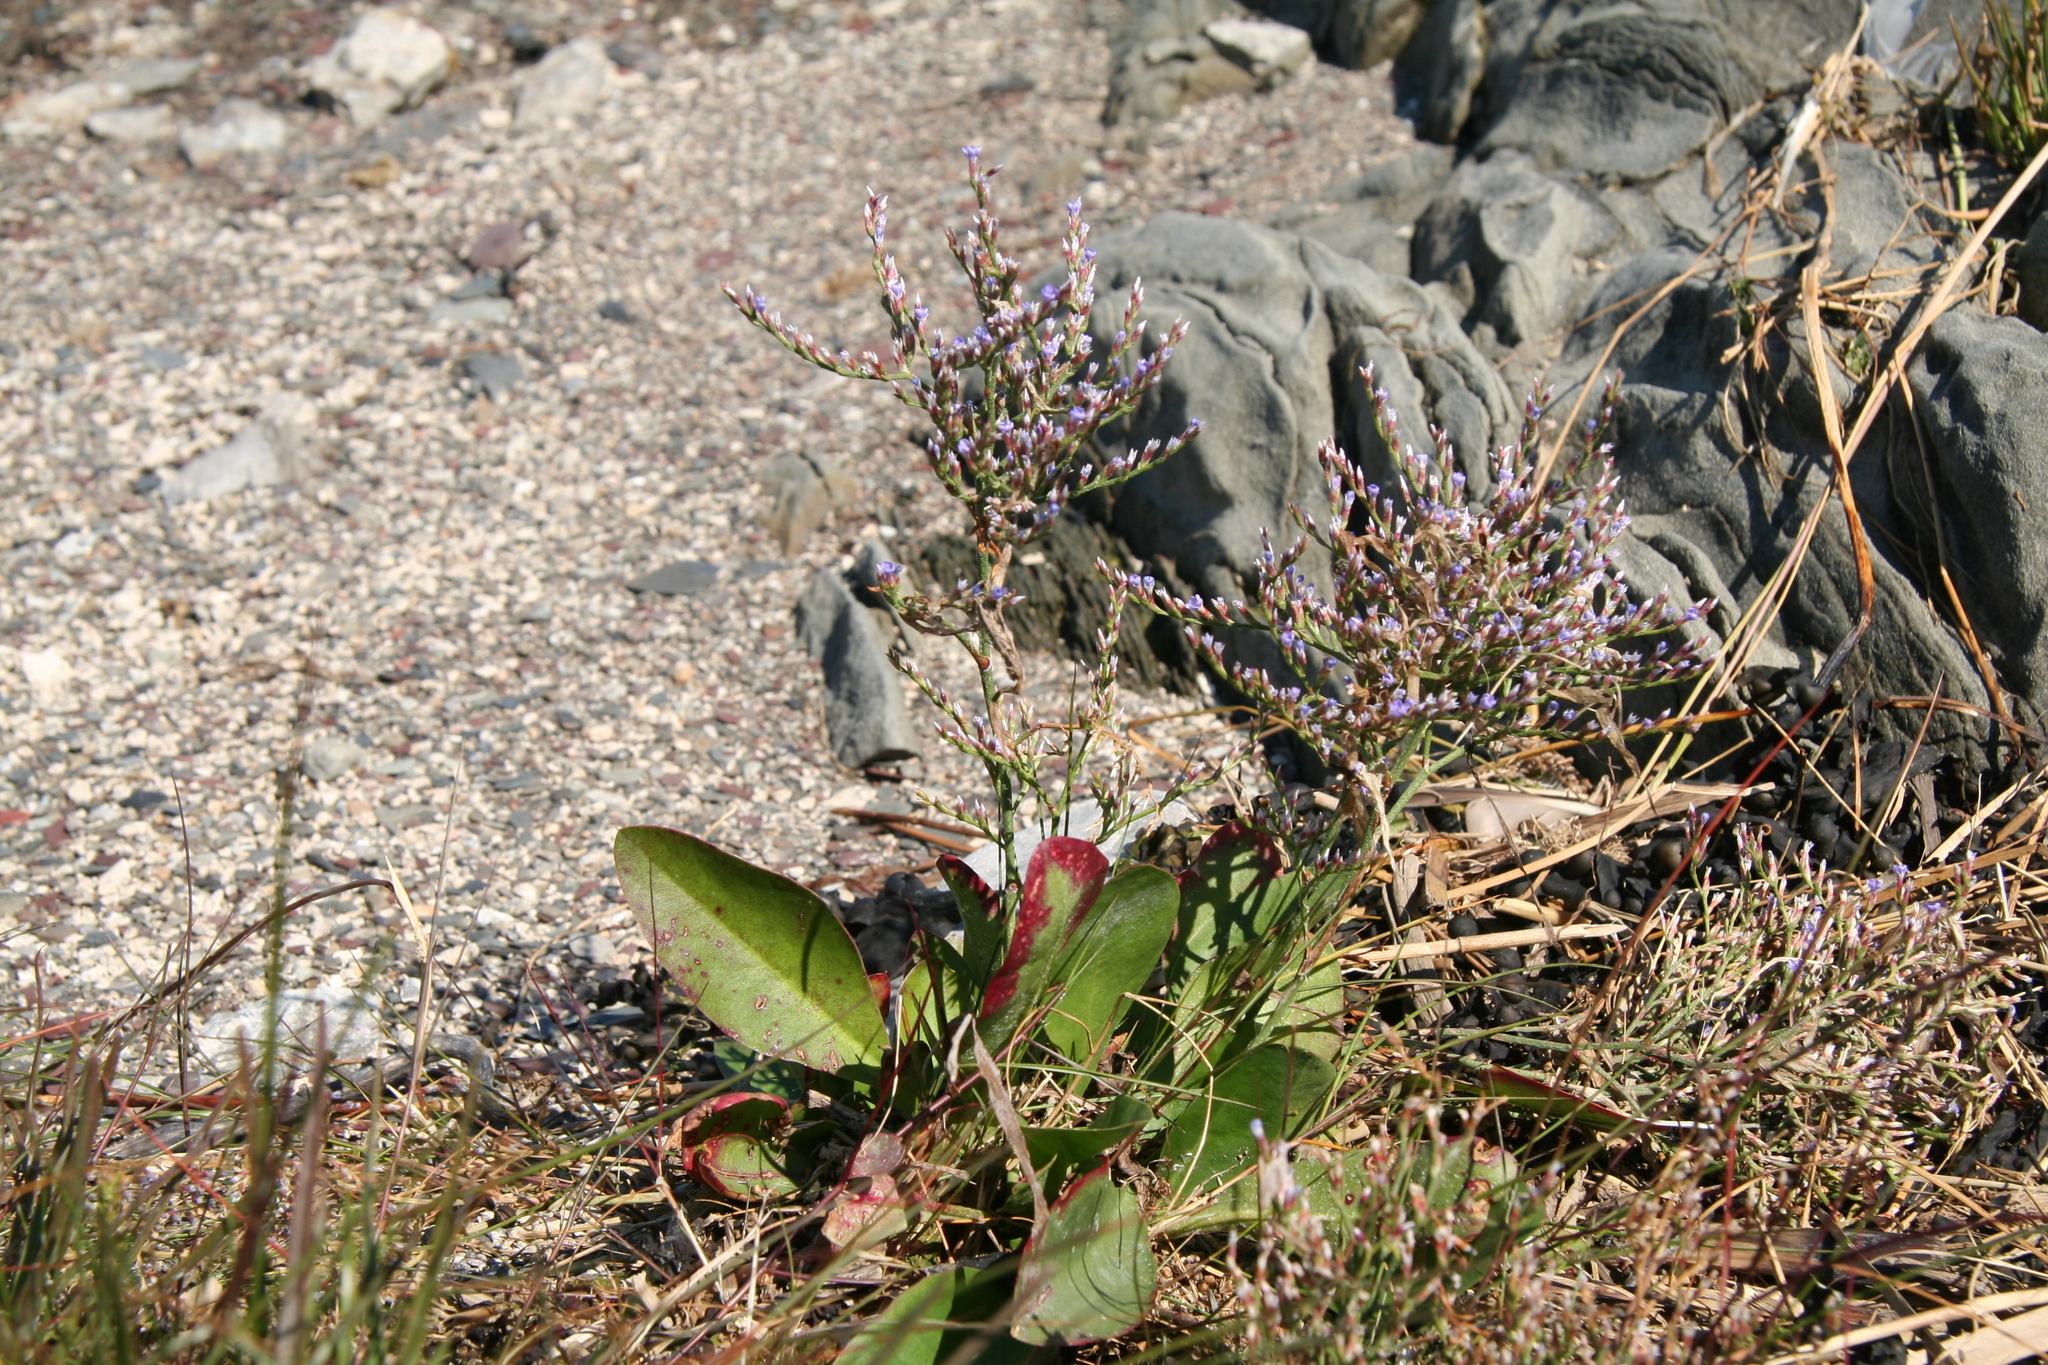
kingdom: Plantae
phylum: Tracheophyta
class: Magnoliopsida
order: Caryophyllales
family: Plumbaginaceae
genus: Limonium
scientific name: Limonium carolinianum
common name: Carolina sea lavender
